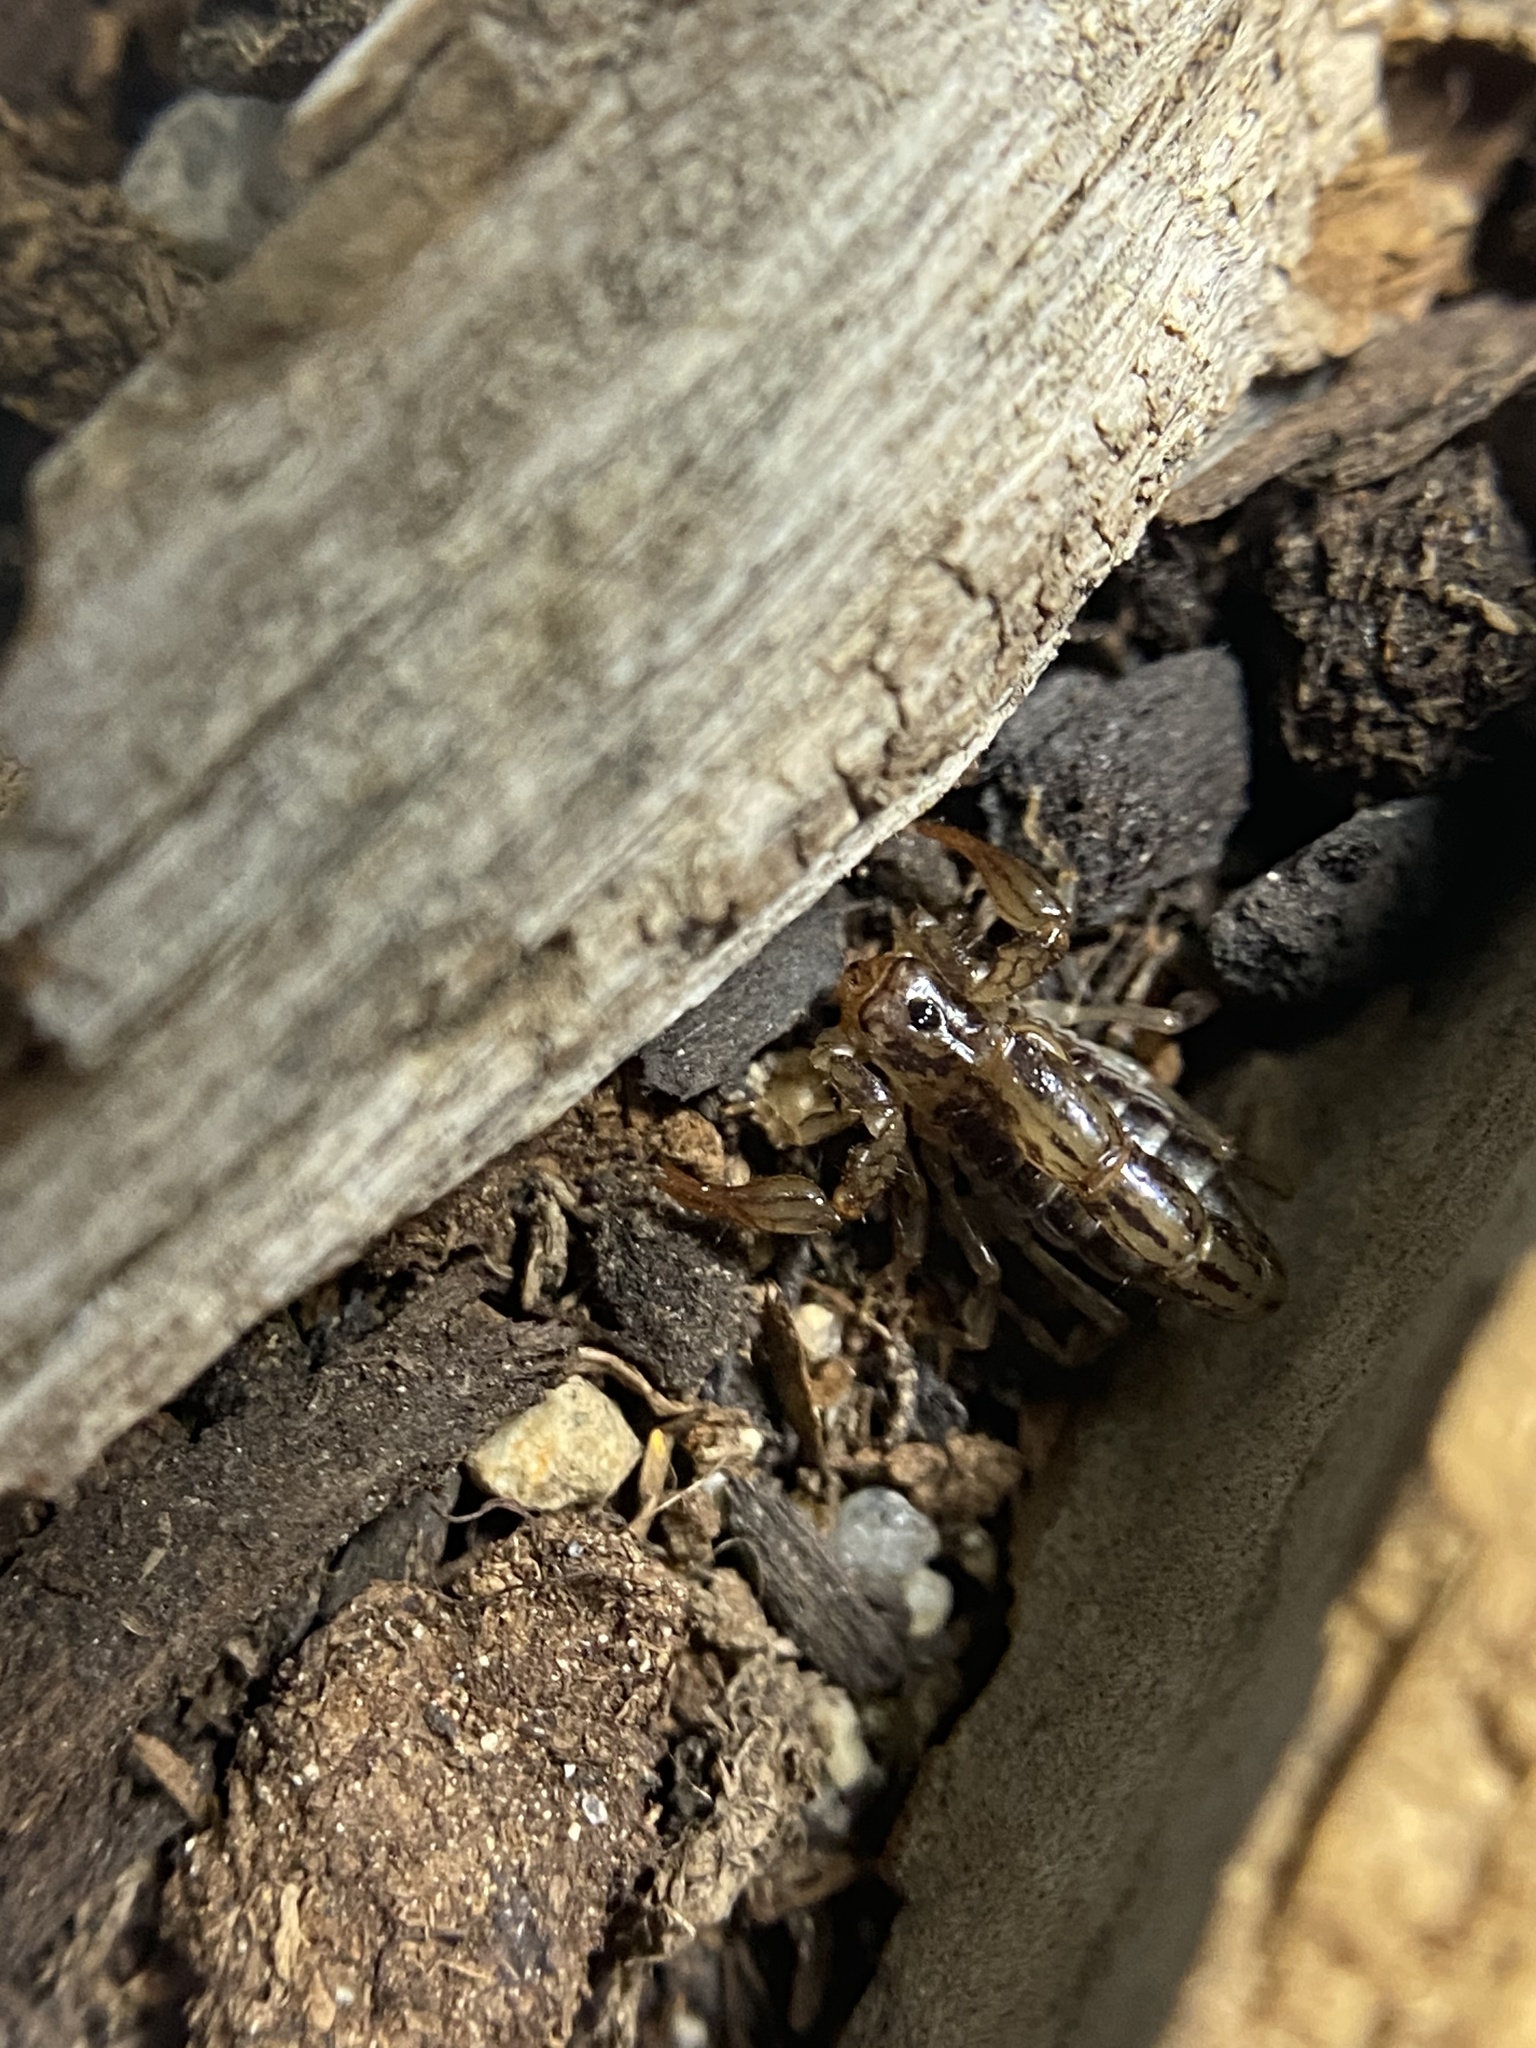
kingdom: Animalia
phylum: Arthropoda
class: Arachnida
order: Scorpiones
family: Superstitioniidae
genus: Superstitionia
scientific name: Superstitionia donensis
